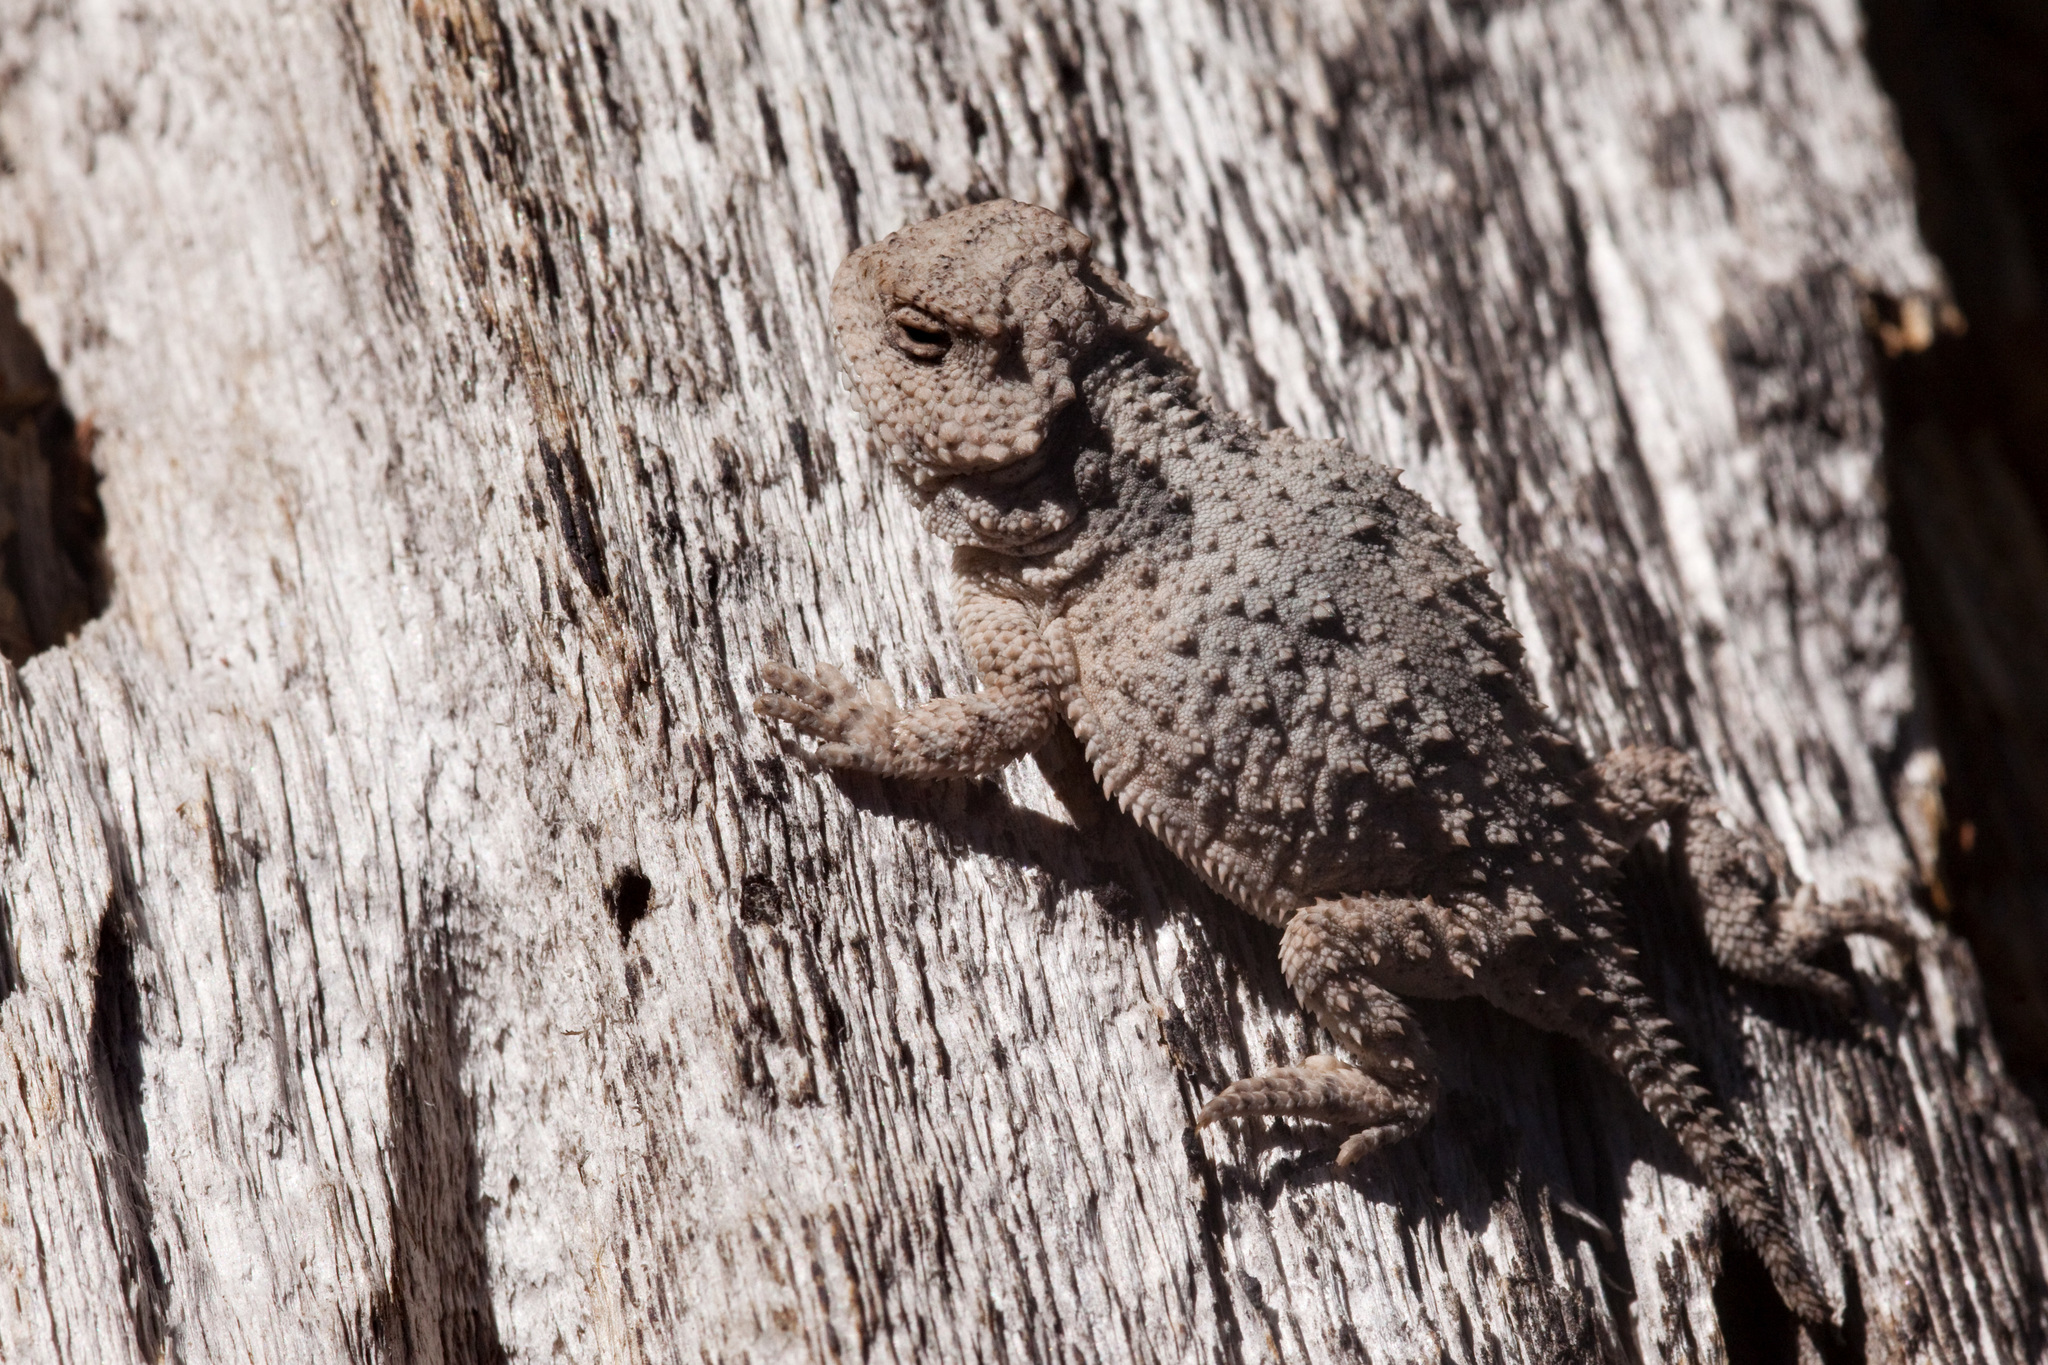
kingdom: Animalia
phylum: Chordata
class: Squamata
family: Phrynosomatidae
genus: Phrynosoma
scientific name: Phrynosoma hernandesi
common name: Greater short-horned lizard
